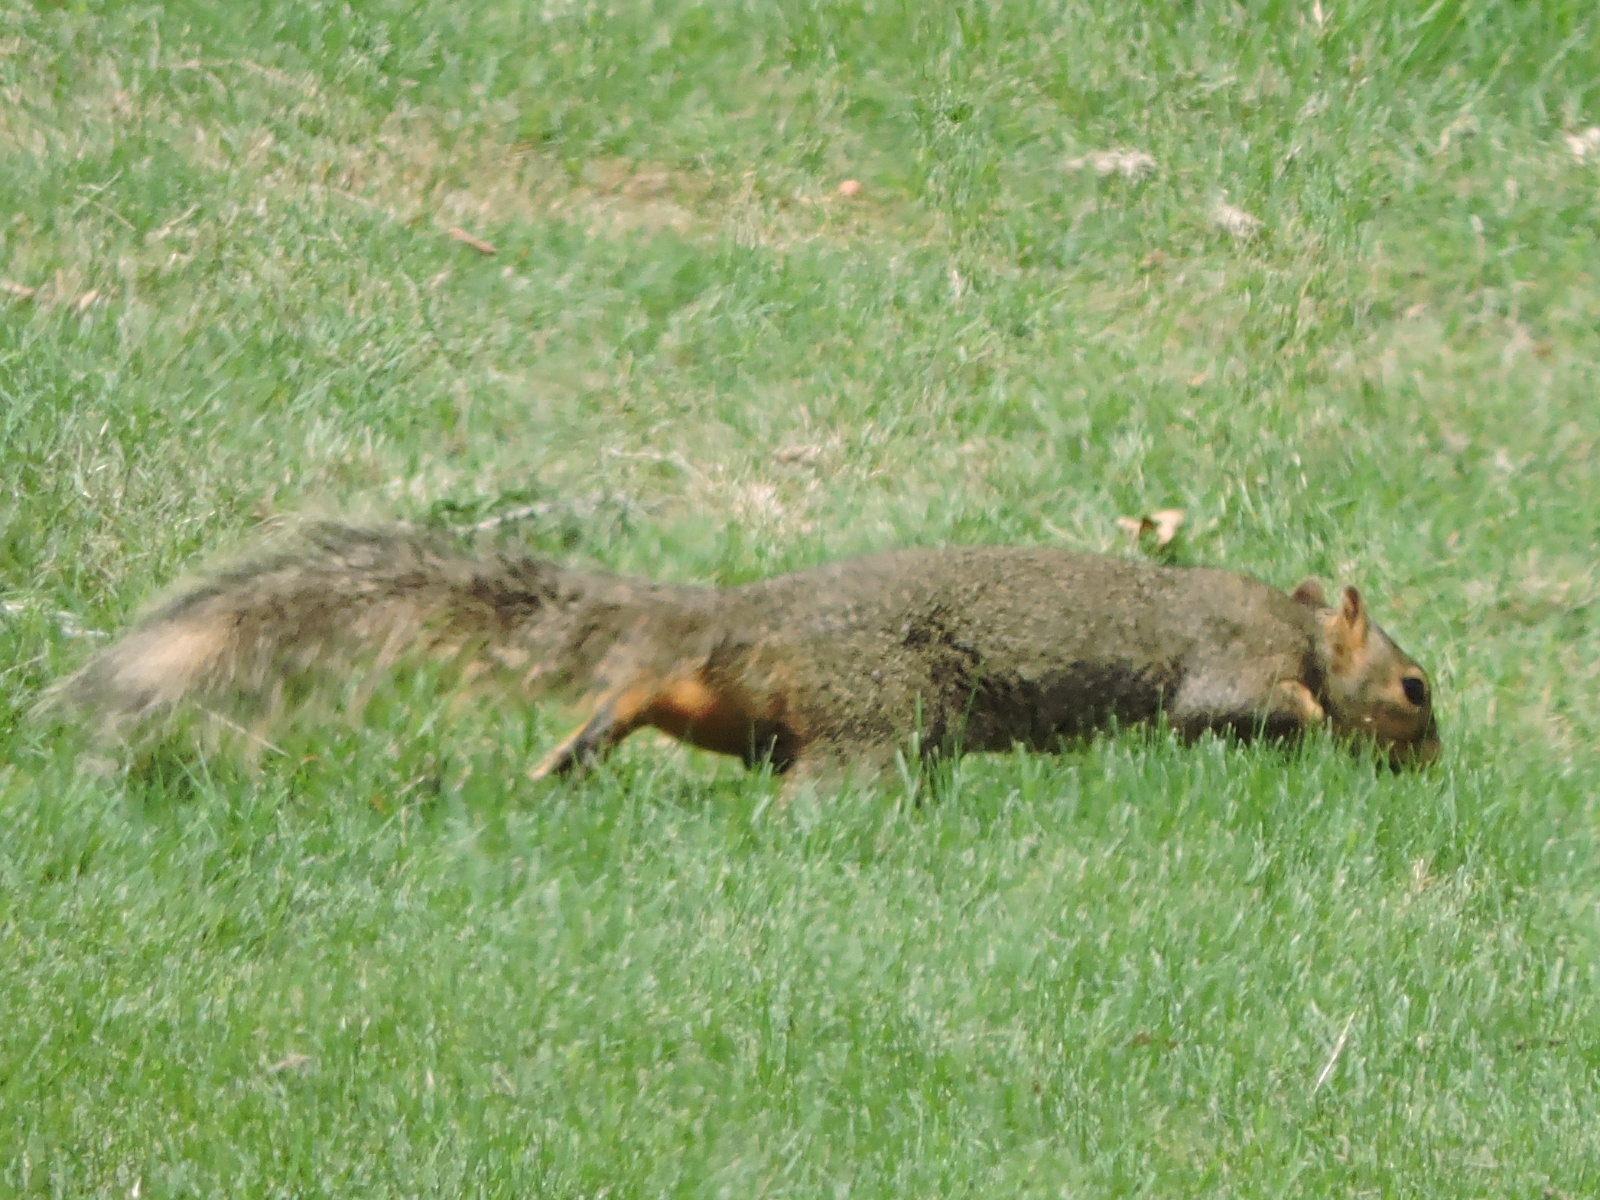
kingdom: Animalia
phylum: Chordata
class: Mammalia
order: Rodentia
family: Sciuridae
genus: Sciurus
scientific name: Sciurus niger
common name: Fox squirrel
